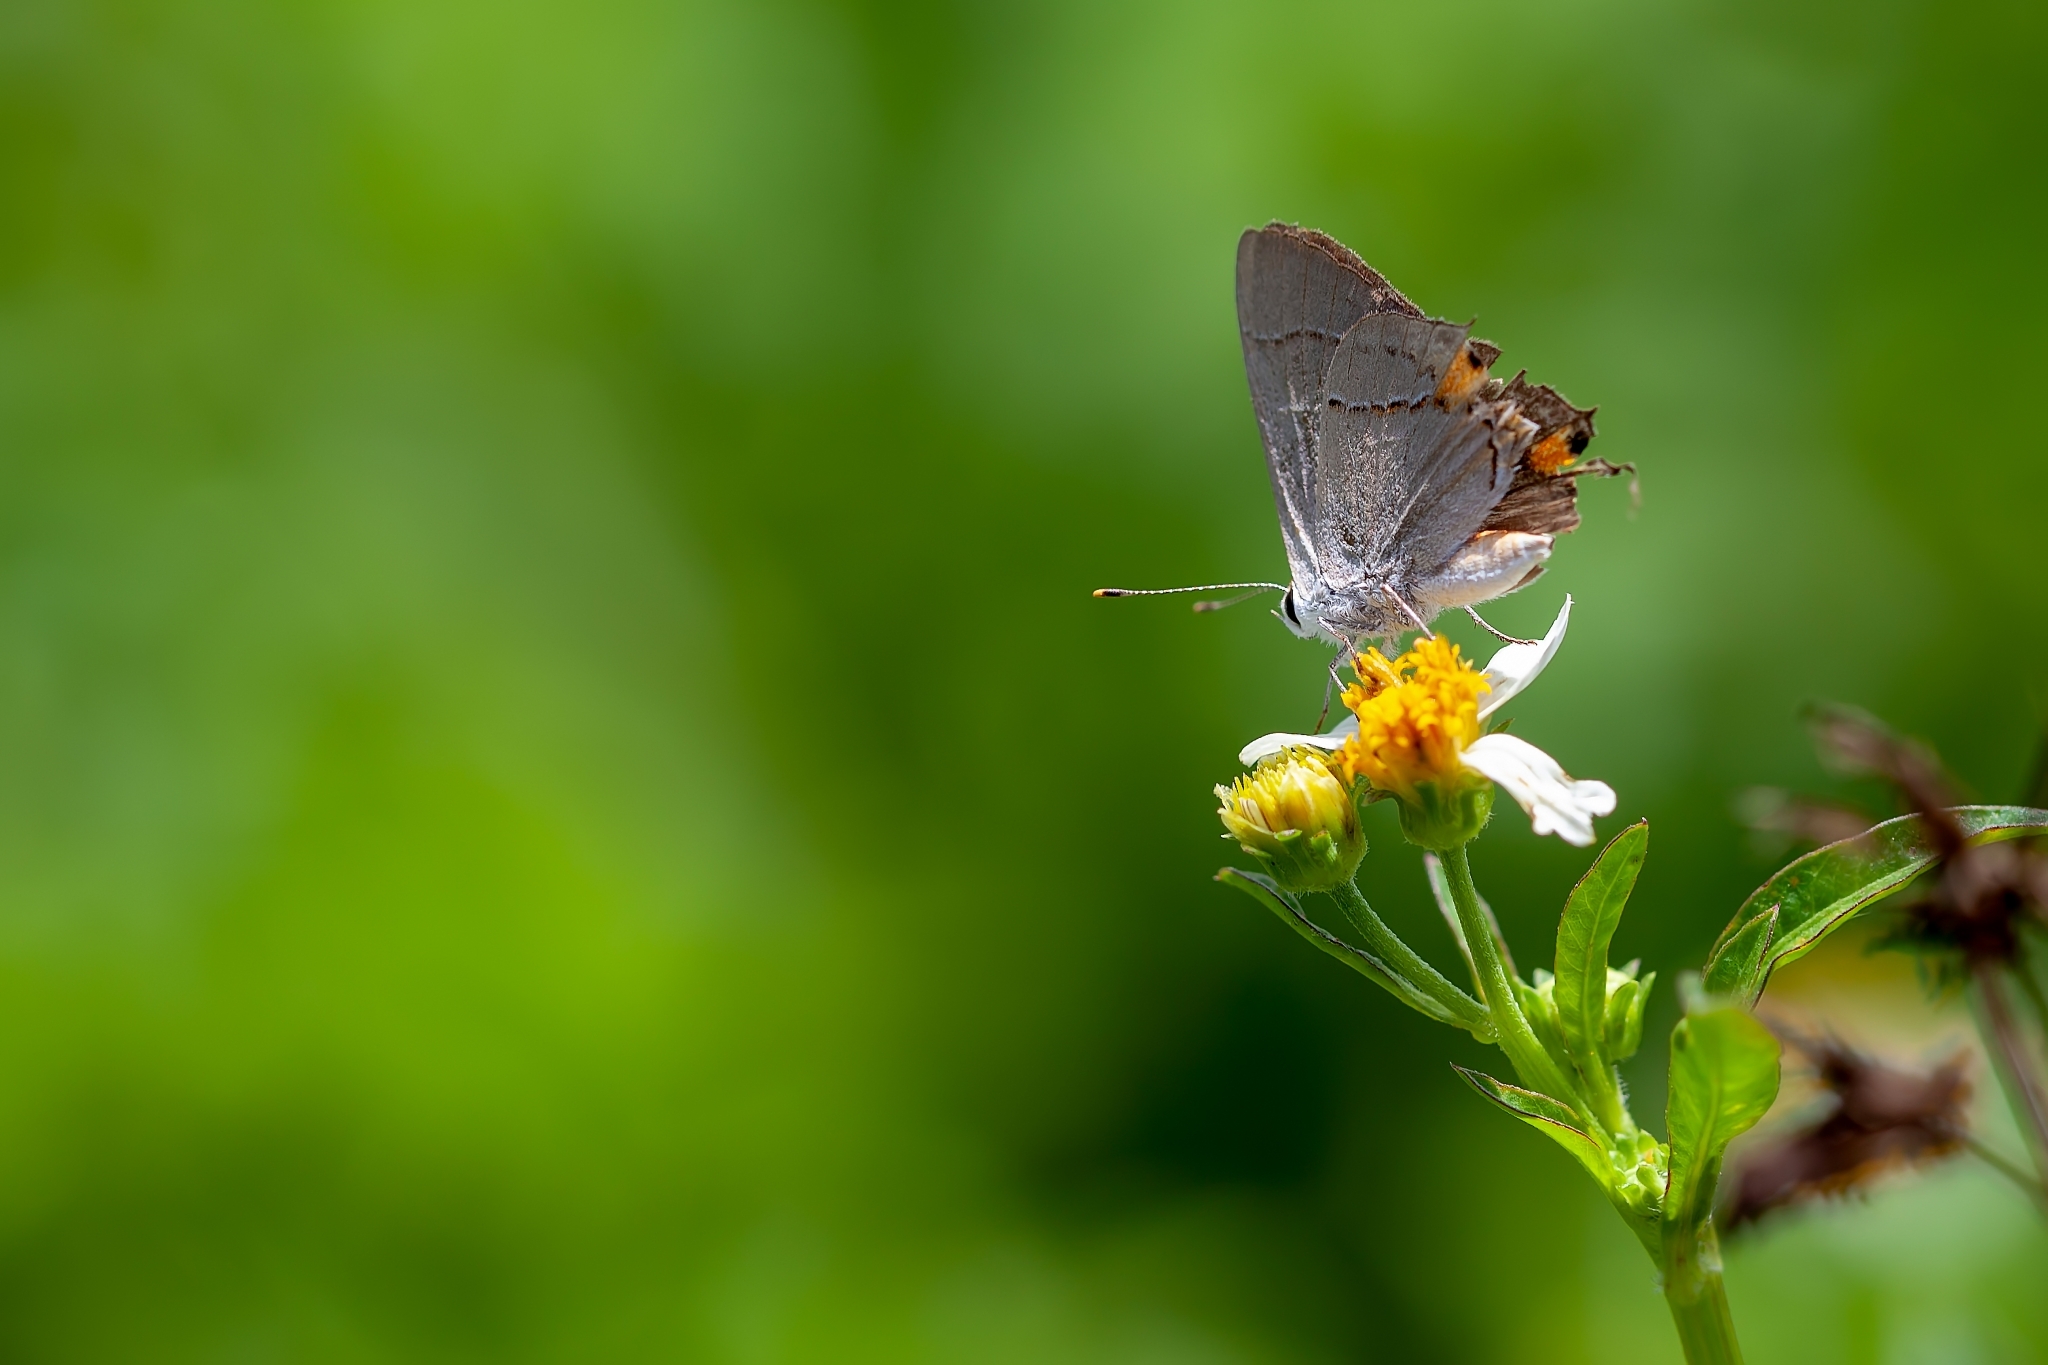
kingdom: Animalia
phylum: Arthropoda
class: Insecta
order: Lepidoptera
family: Lycaenidae
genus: Strymon
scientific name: Strymon melinus
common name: Gray hairstreak
